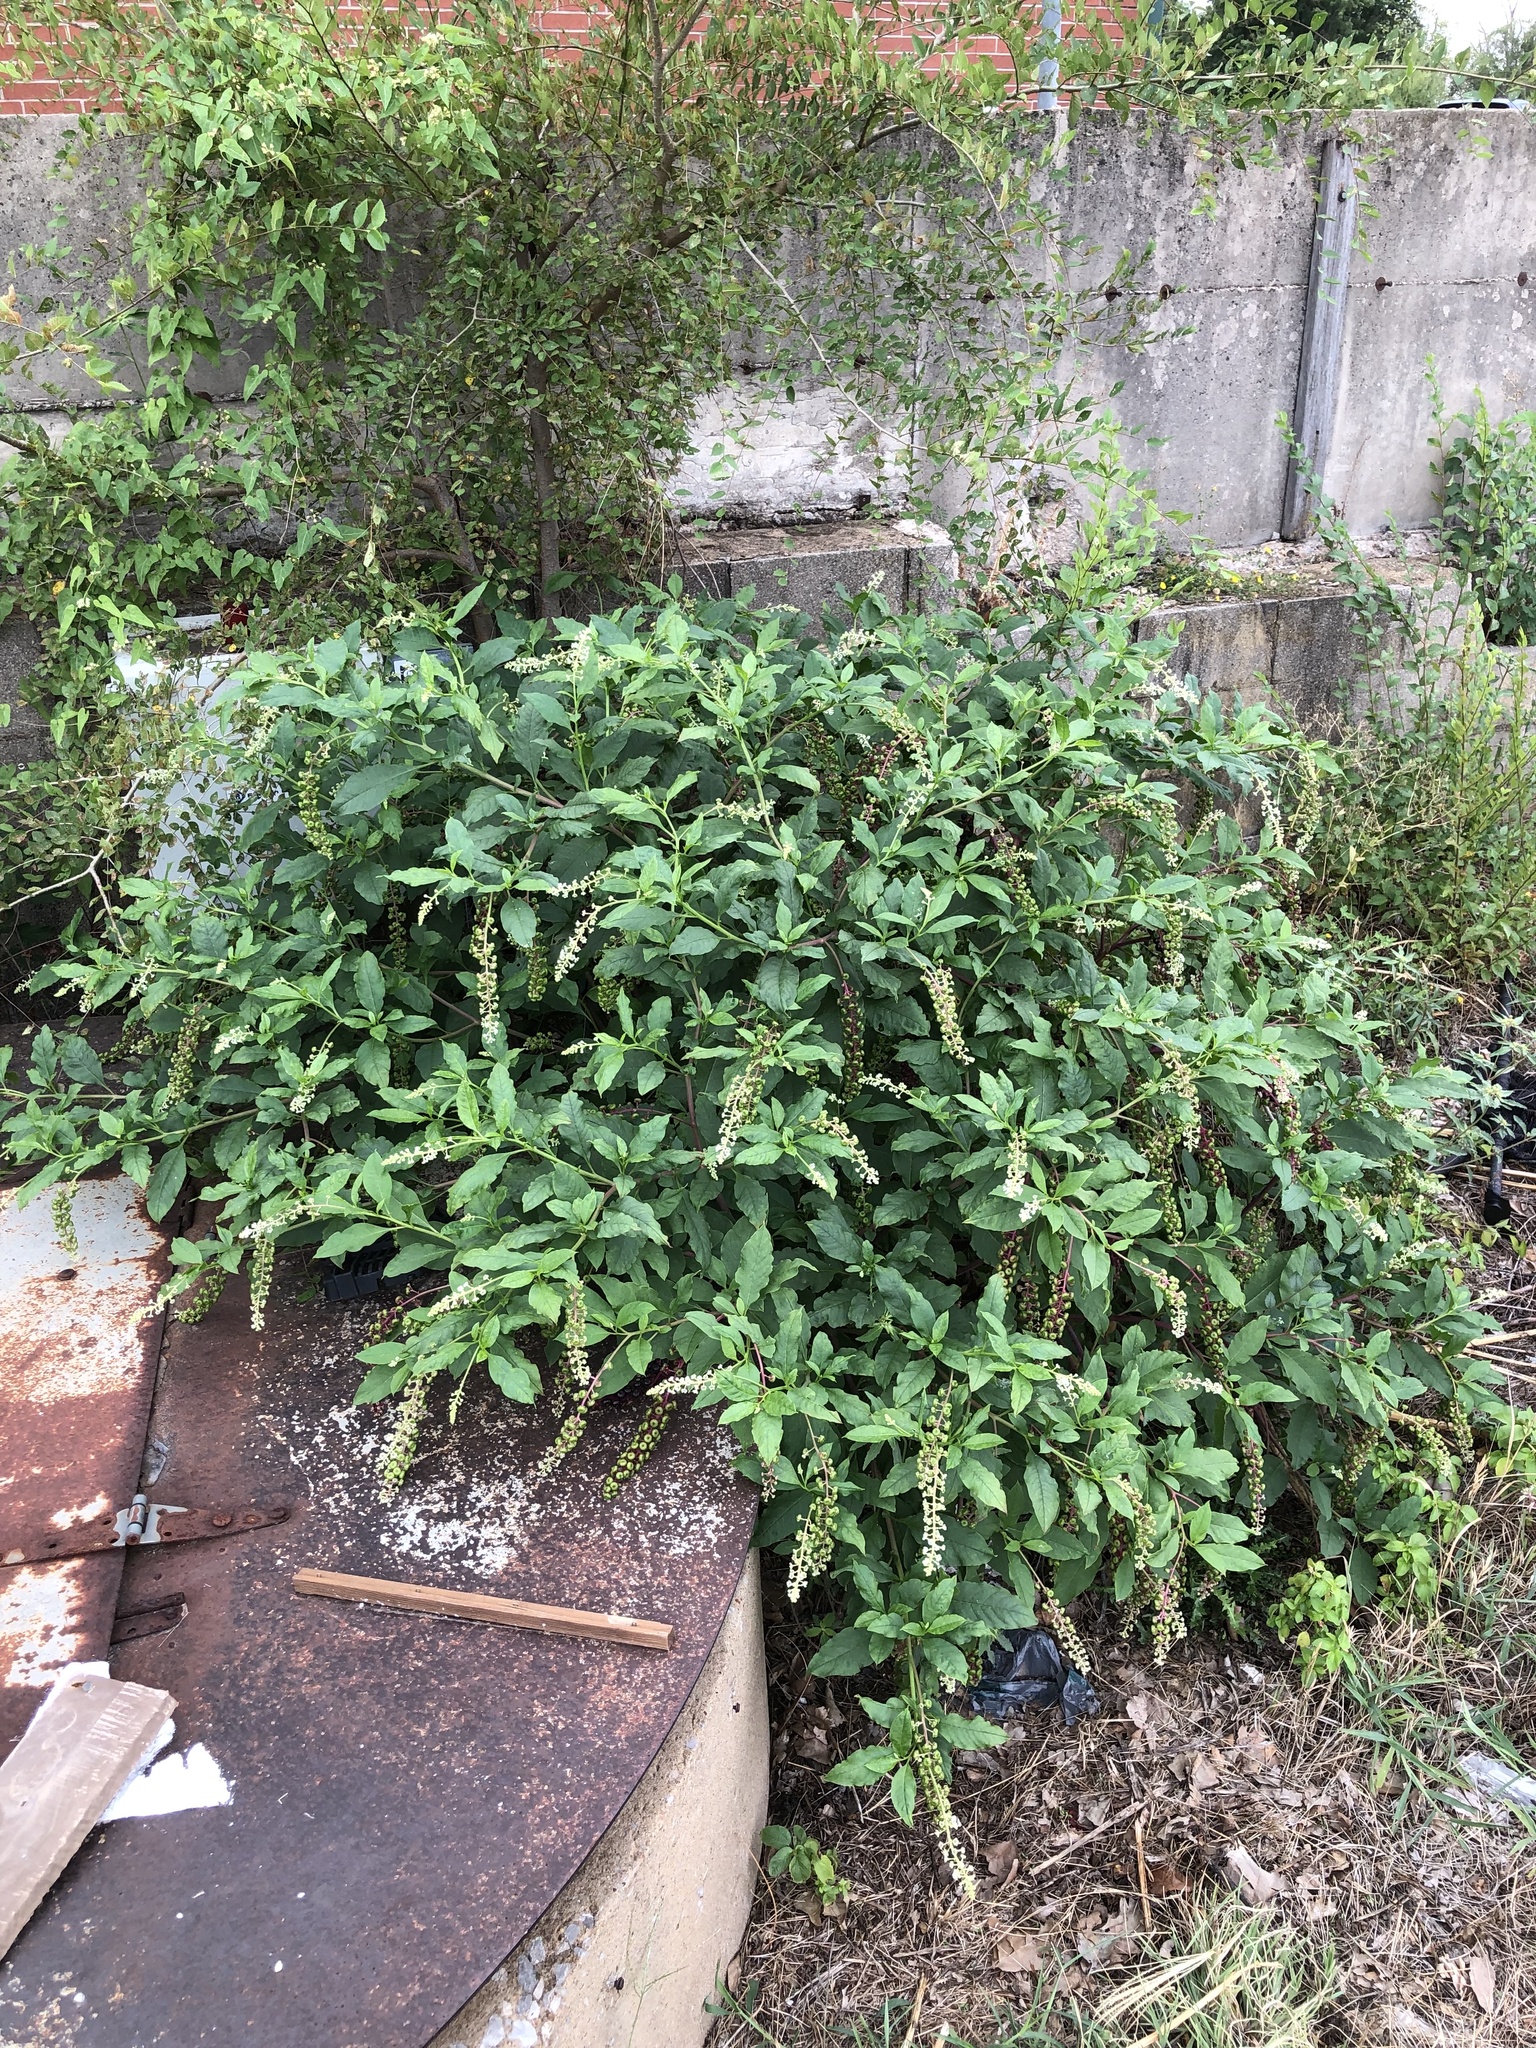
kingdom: Plantae
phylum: Tracheophyta
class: Magnoliopsida
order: Caryophyllales
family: Phytolaccaceae
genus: Phytolacca
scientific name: Phytolacca americana
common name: American pokeweed
